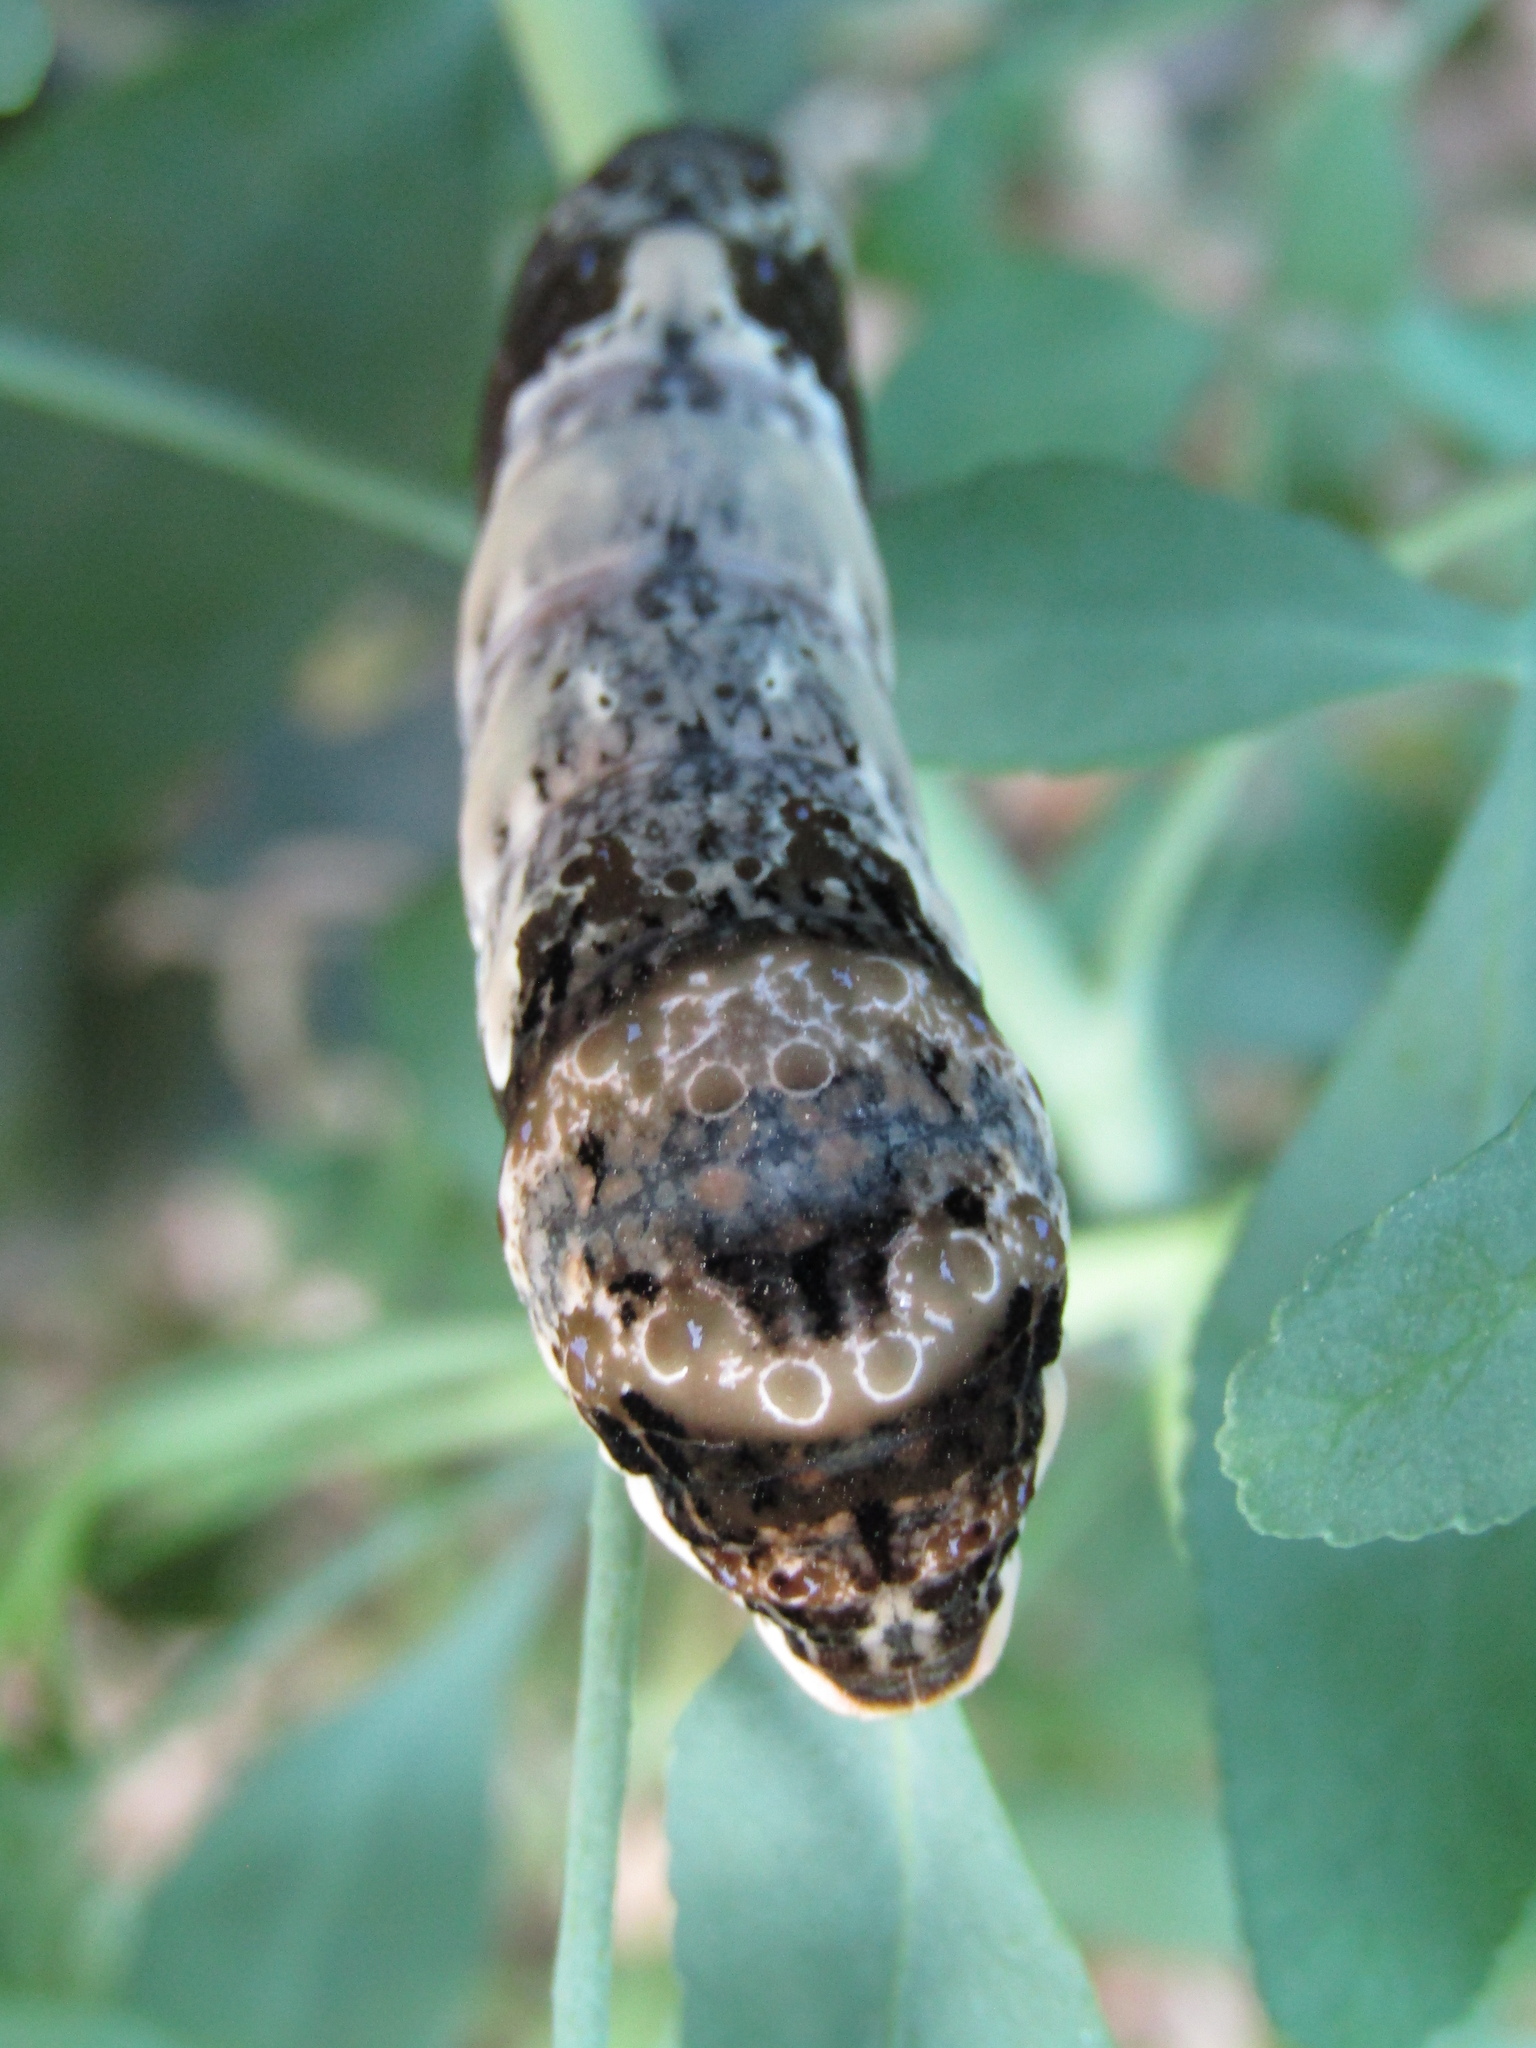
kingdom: Animalia
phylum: Arthropoda
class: Insecta
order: Lepidoptera
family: Papilionidae
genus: Papilio
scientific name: Papilio thoas
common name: King swallowtail
